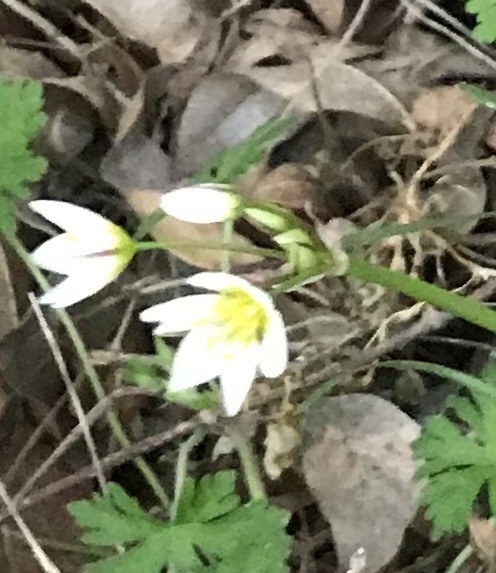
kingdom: Plantae
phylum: Tracheophyta
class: Liliopsida
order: Asparagales
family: Amaryllidaceae
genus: Nothoscordum
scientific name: Nothoscordum bivalve
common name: Crow-poison
